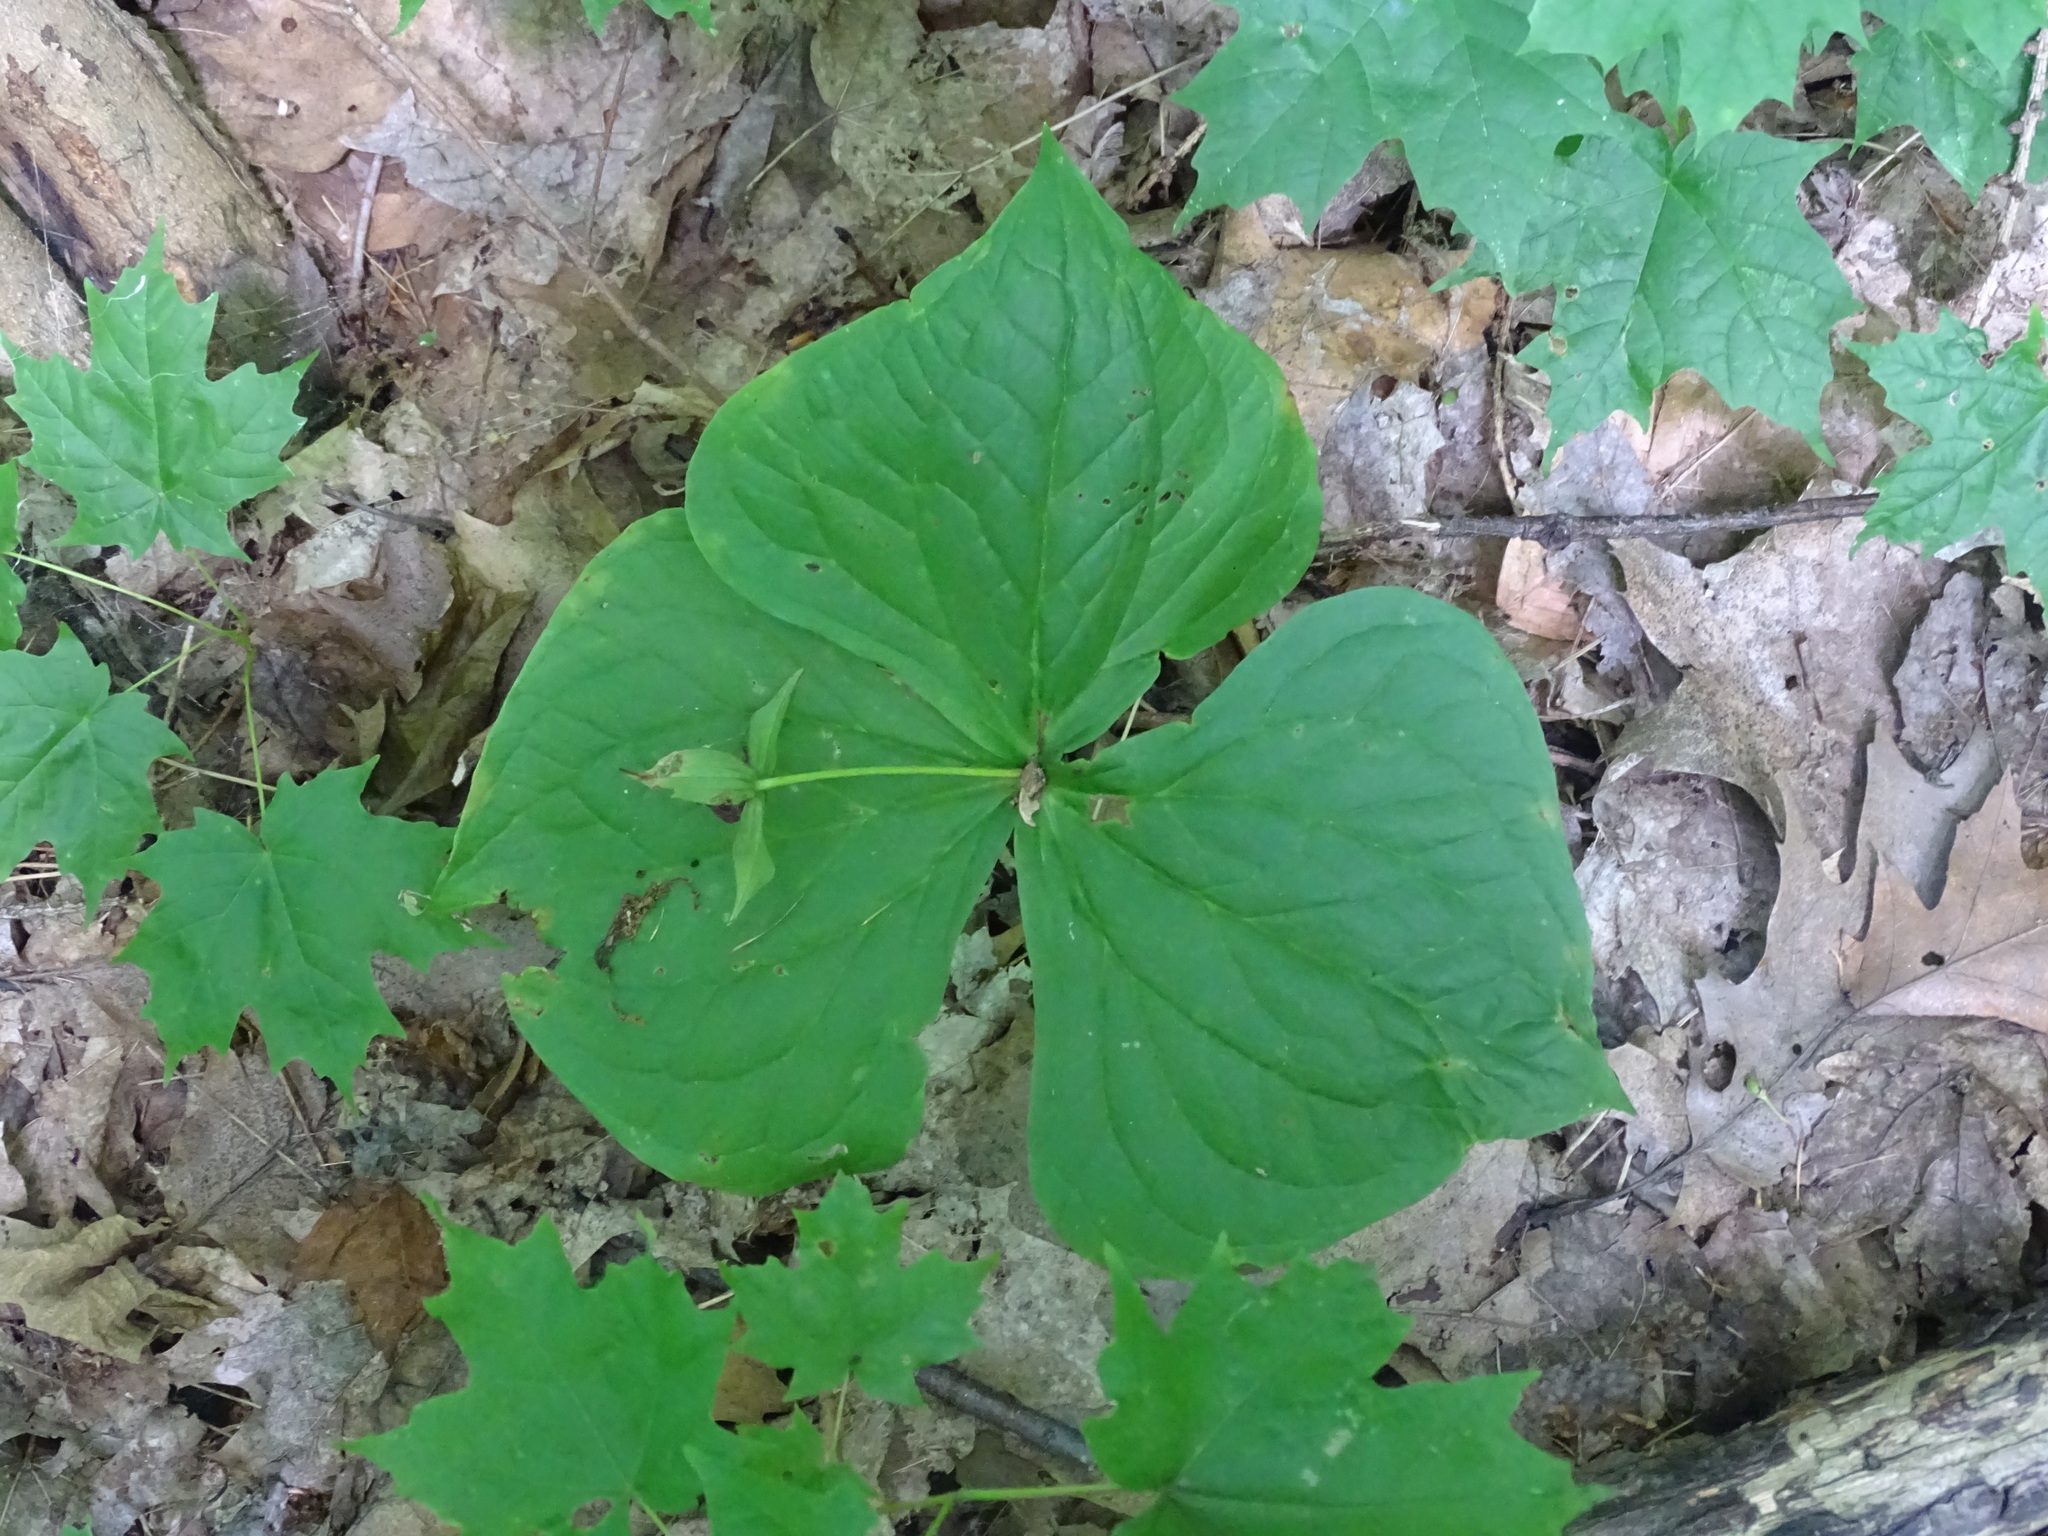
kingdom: Plantae
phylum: Tracheophyta
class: Liliopsida
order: Liliales
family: Melanthiaceae
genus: Trillium
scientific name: Trillium erectum
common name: Purple trillium
